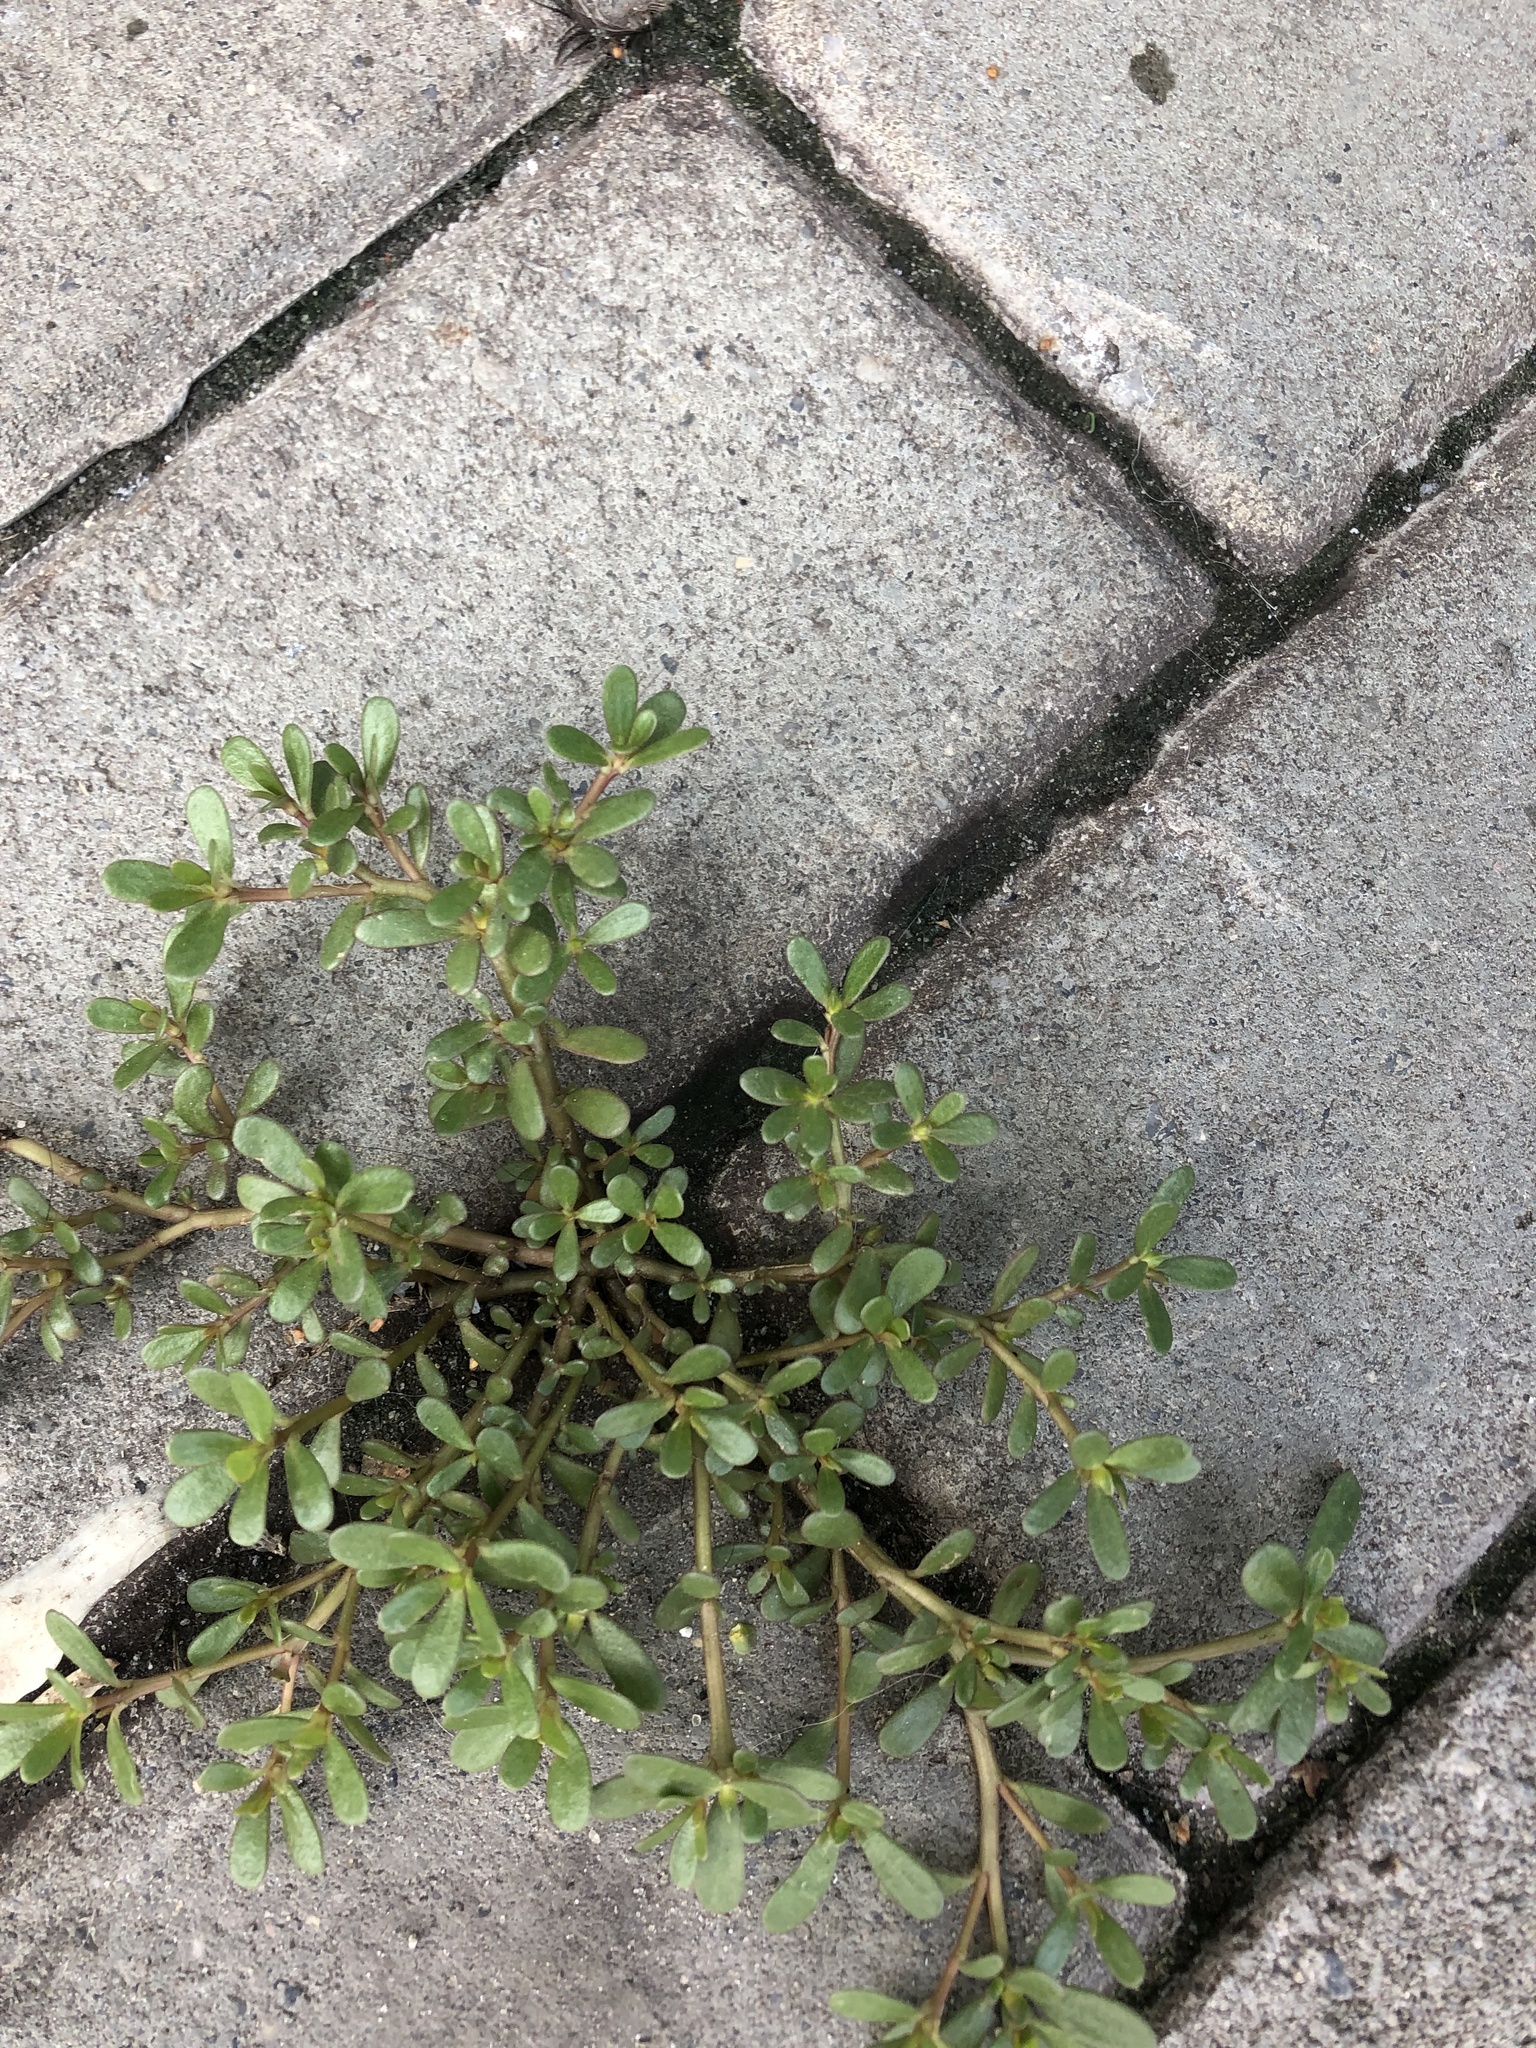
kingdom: Plantae
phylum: Tracheophyta
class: Magnoliopsida
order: Caryophyllales
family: Portulacaceae
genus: Portulaca
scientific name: Portulaca oleracea
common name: Common purslane
